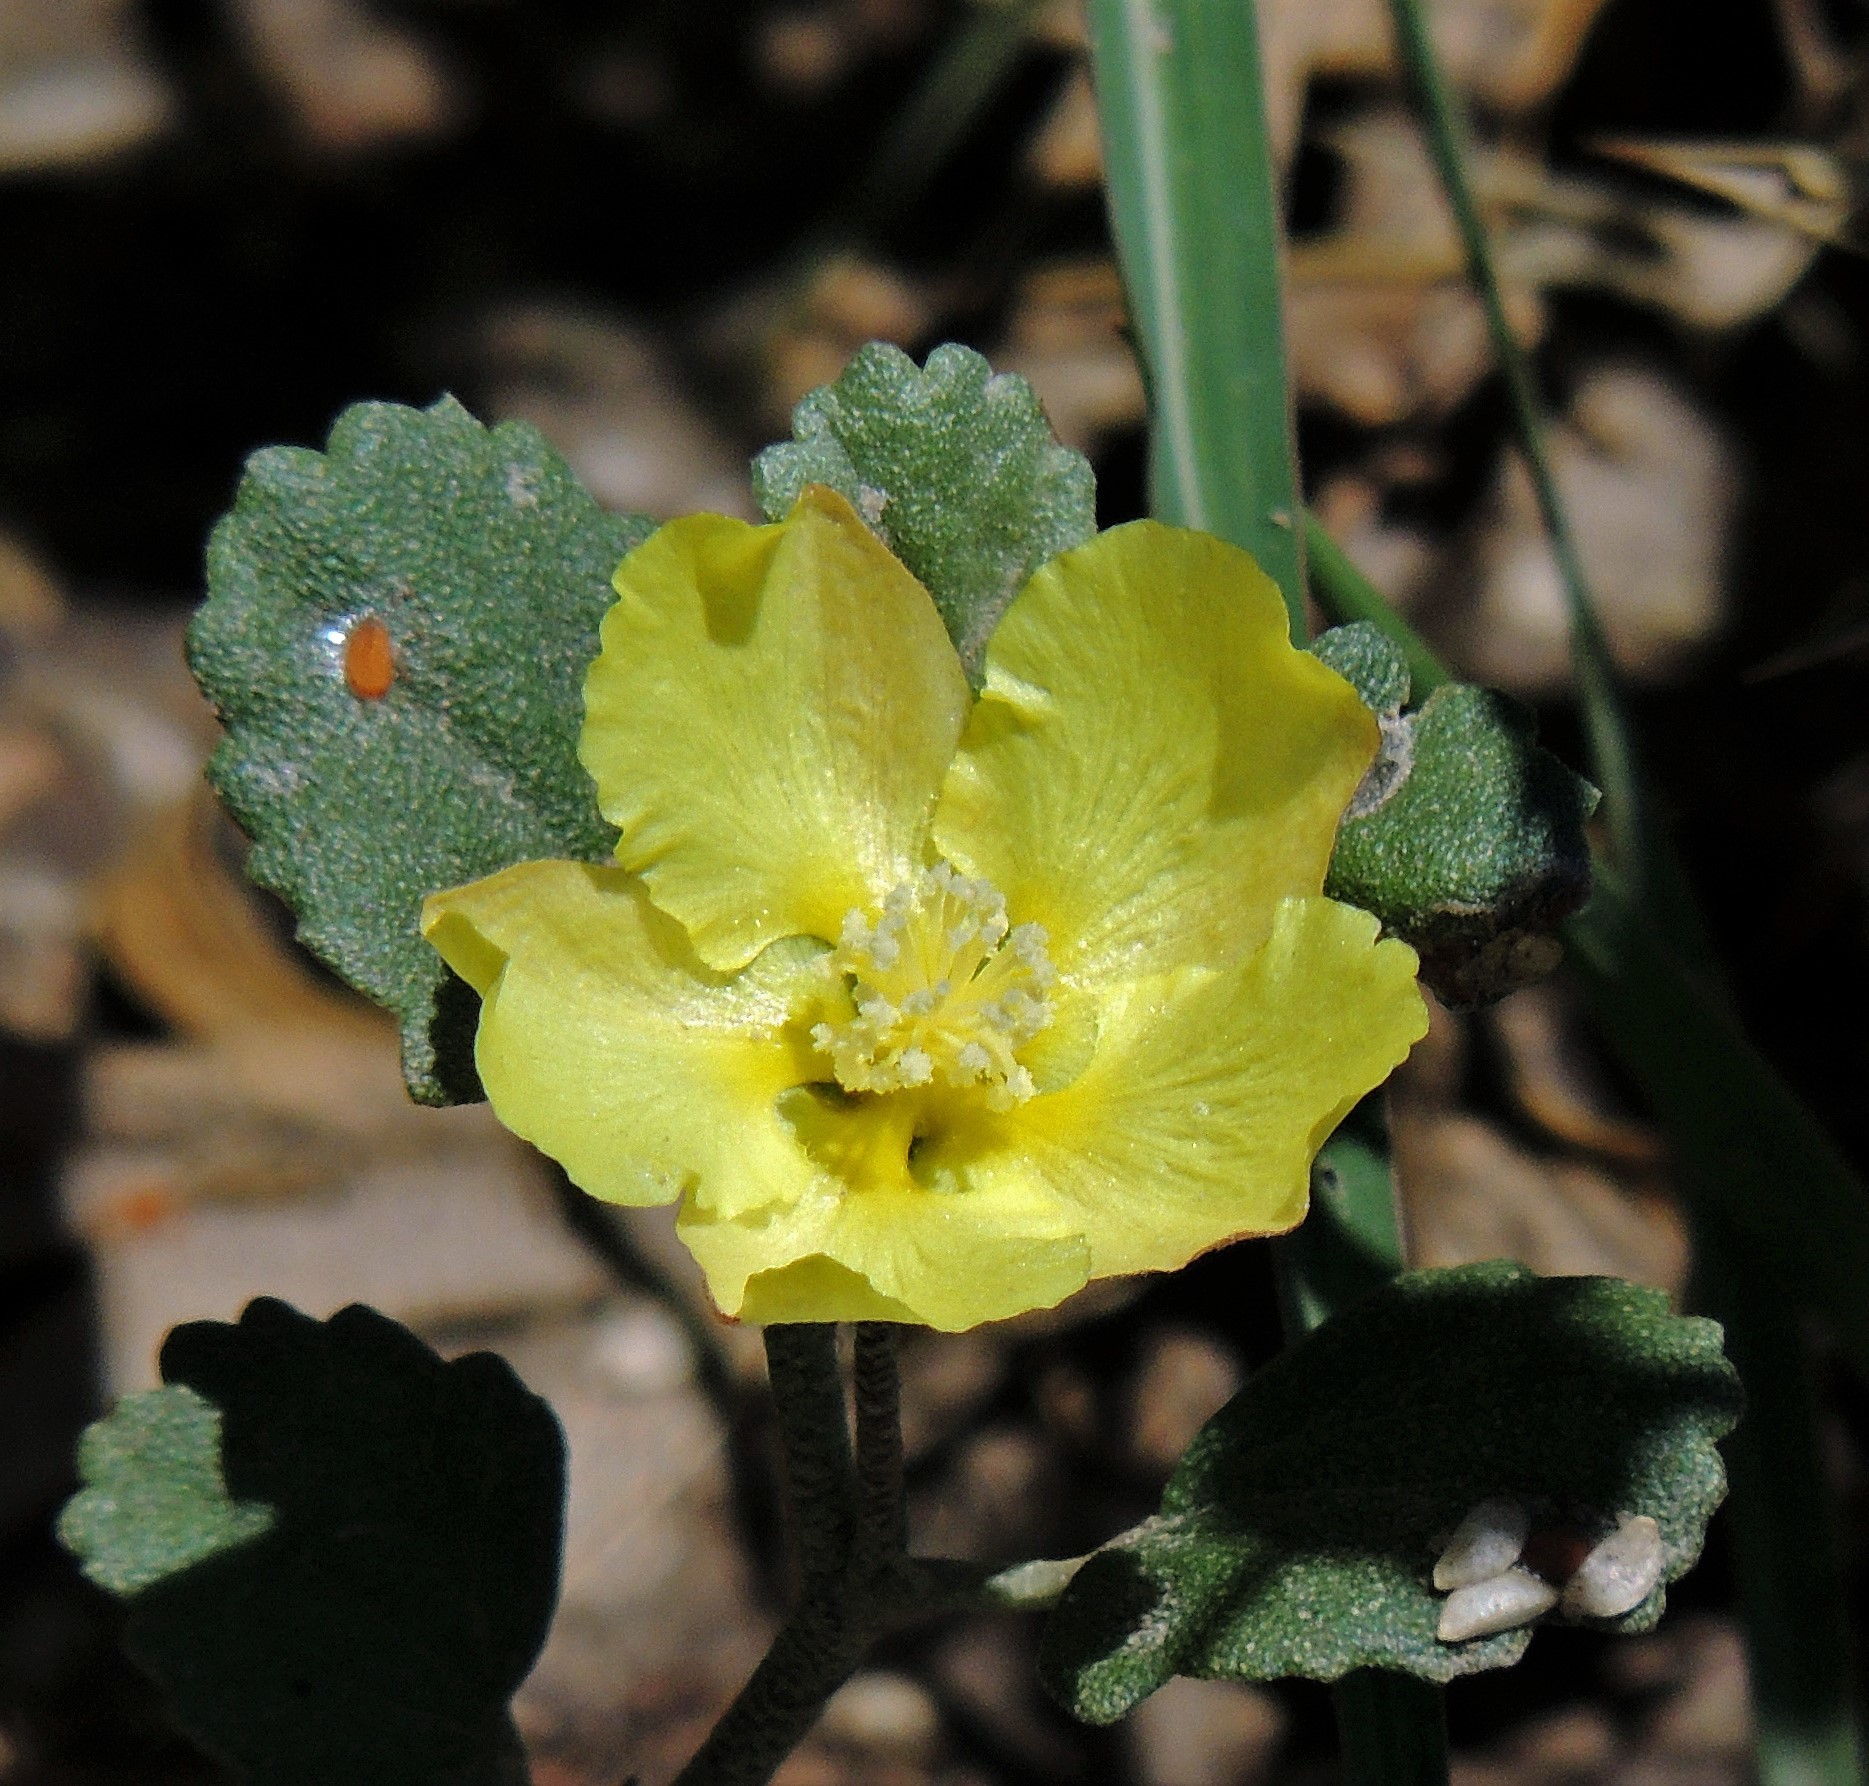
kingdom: Plantae
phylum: Tracheophyta
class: Magnoliopsida
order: Malvales
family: Malvaceae
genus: Malvella
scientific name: Malvella leprosa
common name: Alkali-mallow
